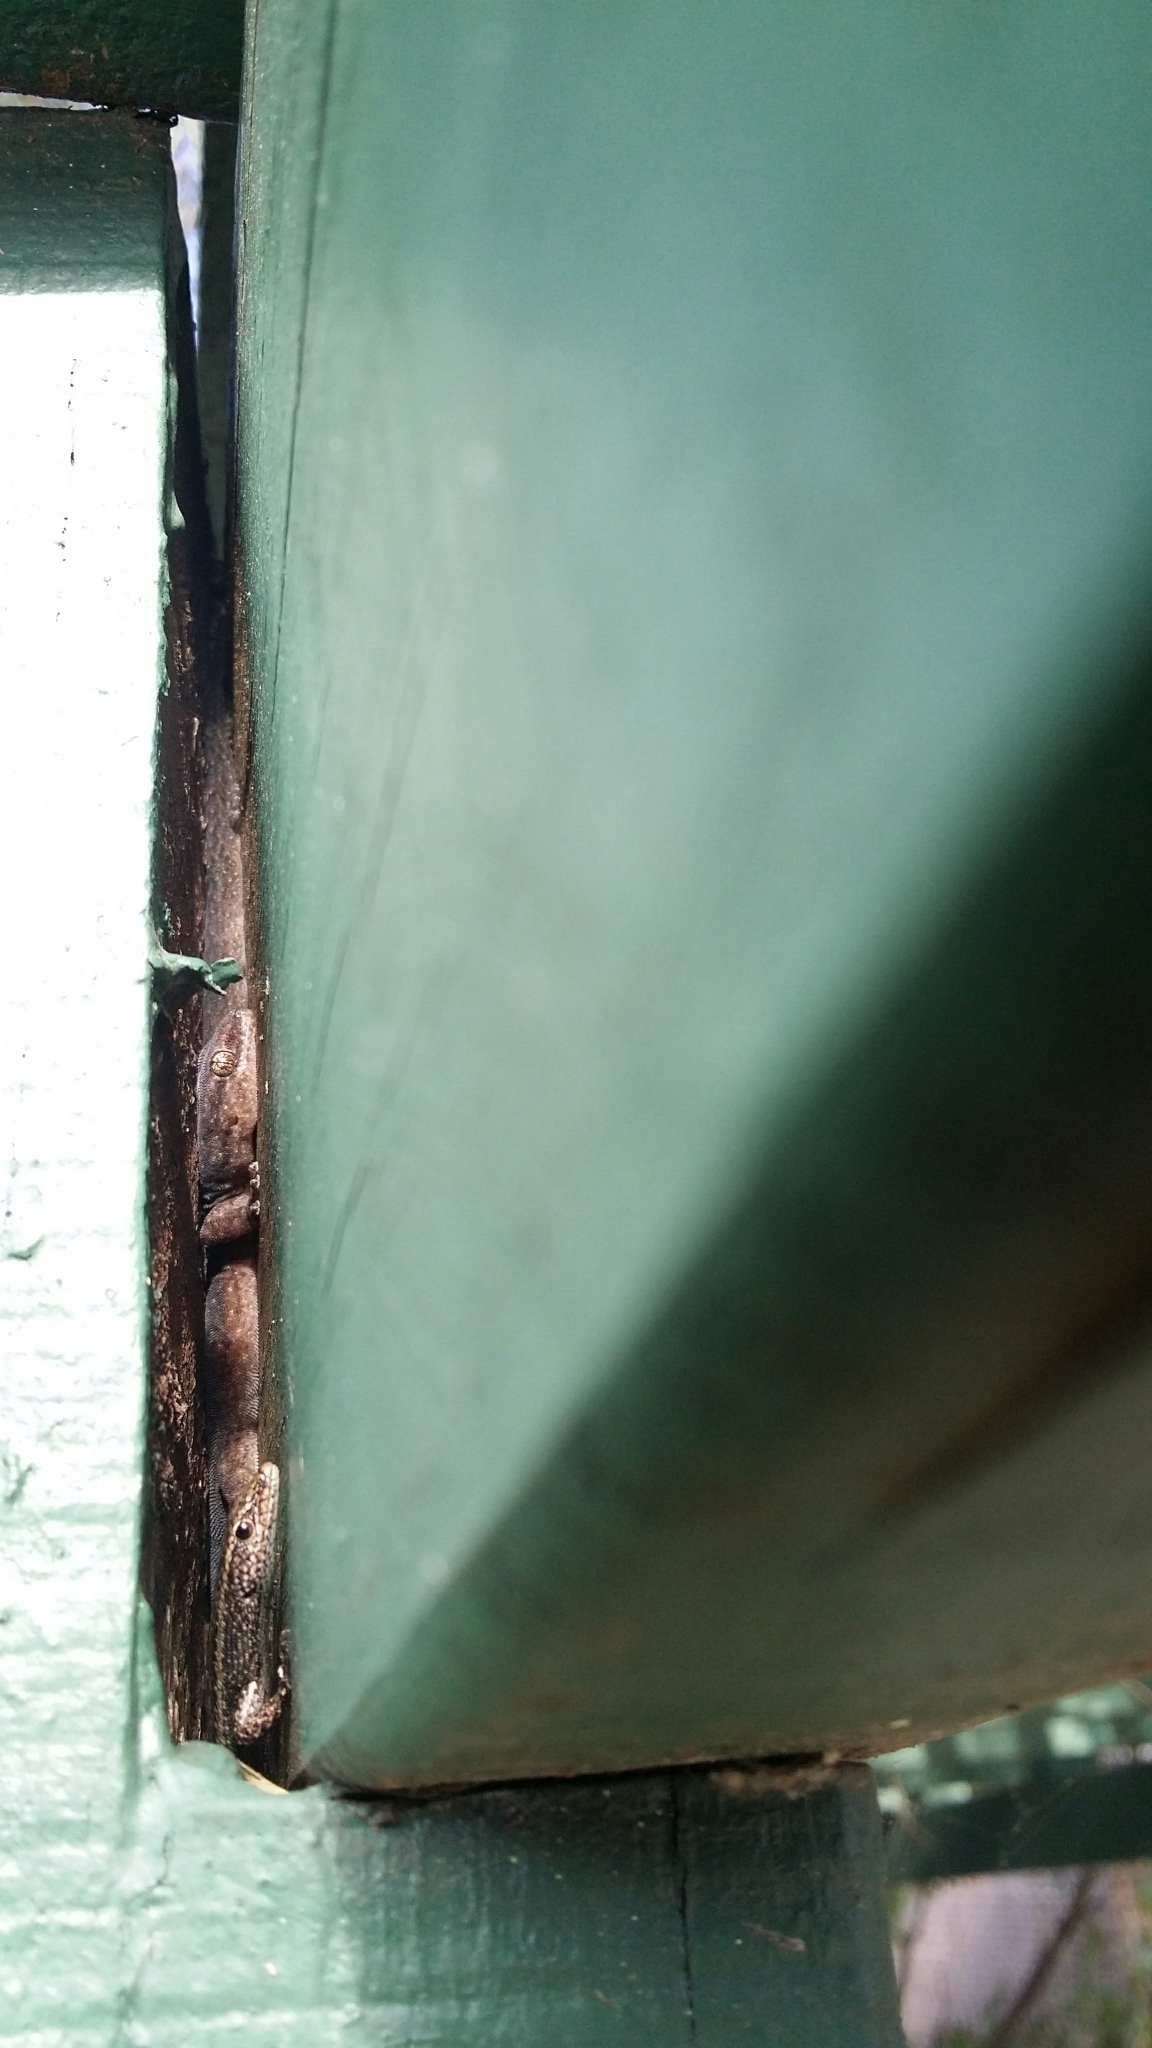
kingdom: Animalia
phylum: Chordata
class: Squamata
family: Gekkonidae
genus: Christinus
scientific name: Christinus marmoratus
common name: Marbled gecko
